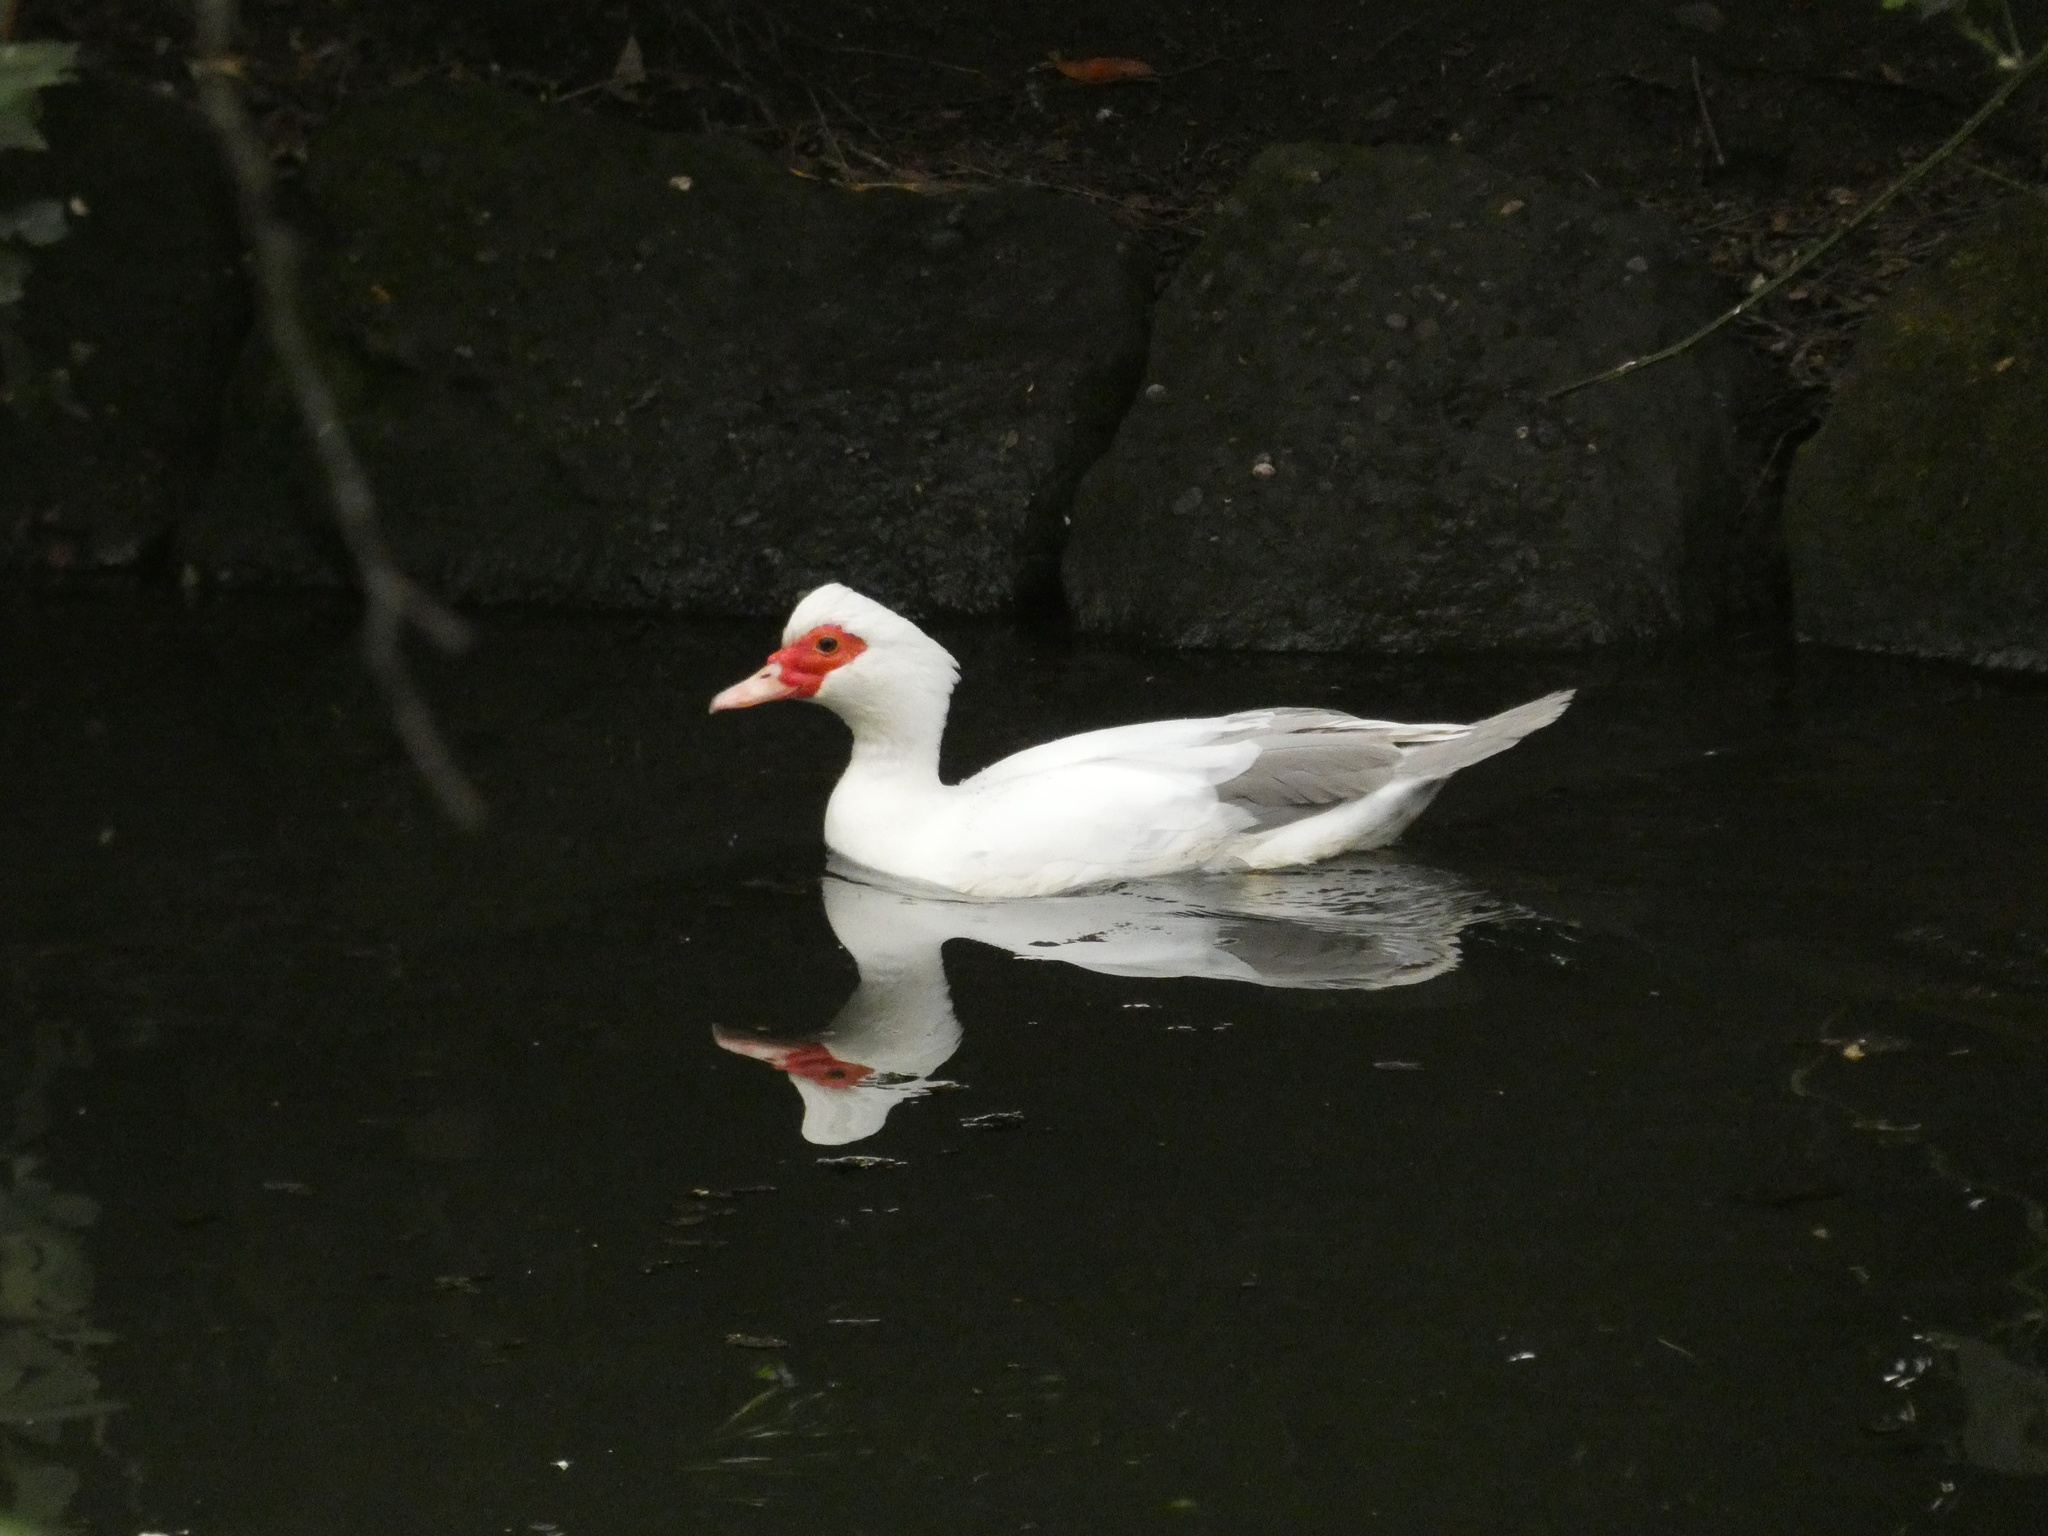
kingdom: Animalia
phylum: Chordata
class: Aves
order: Anseriformes
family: Anatidae
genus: Cairina
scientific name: Cairina moschata
